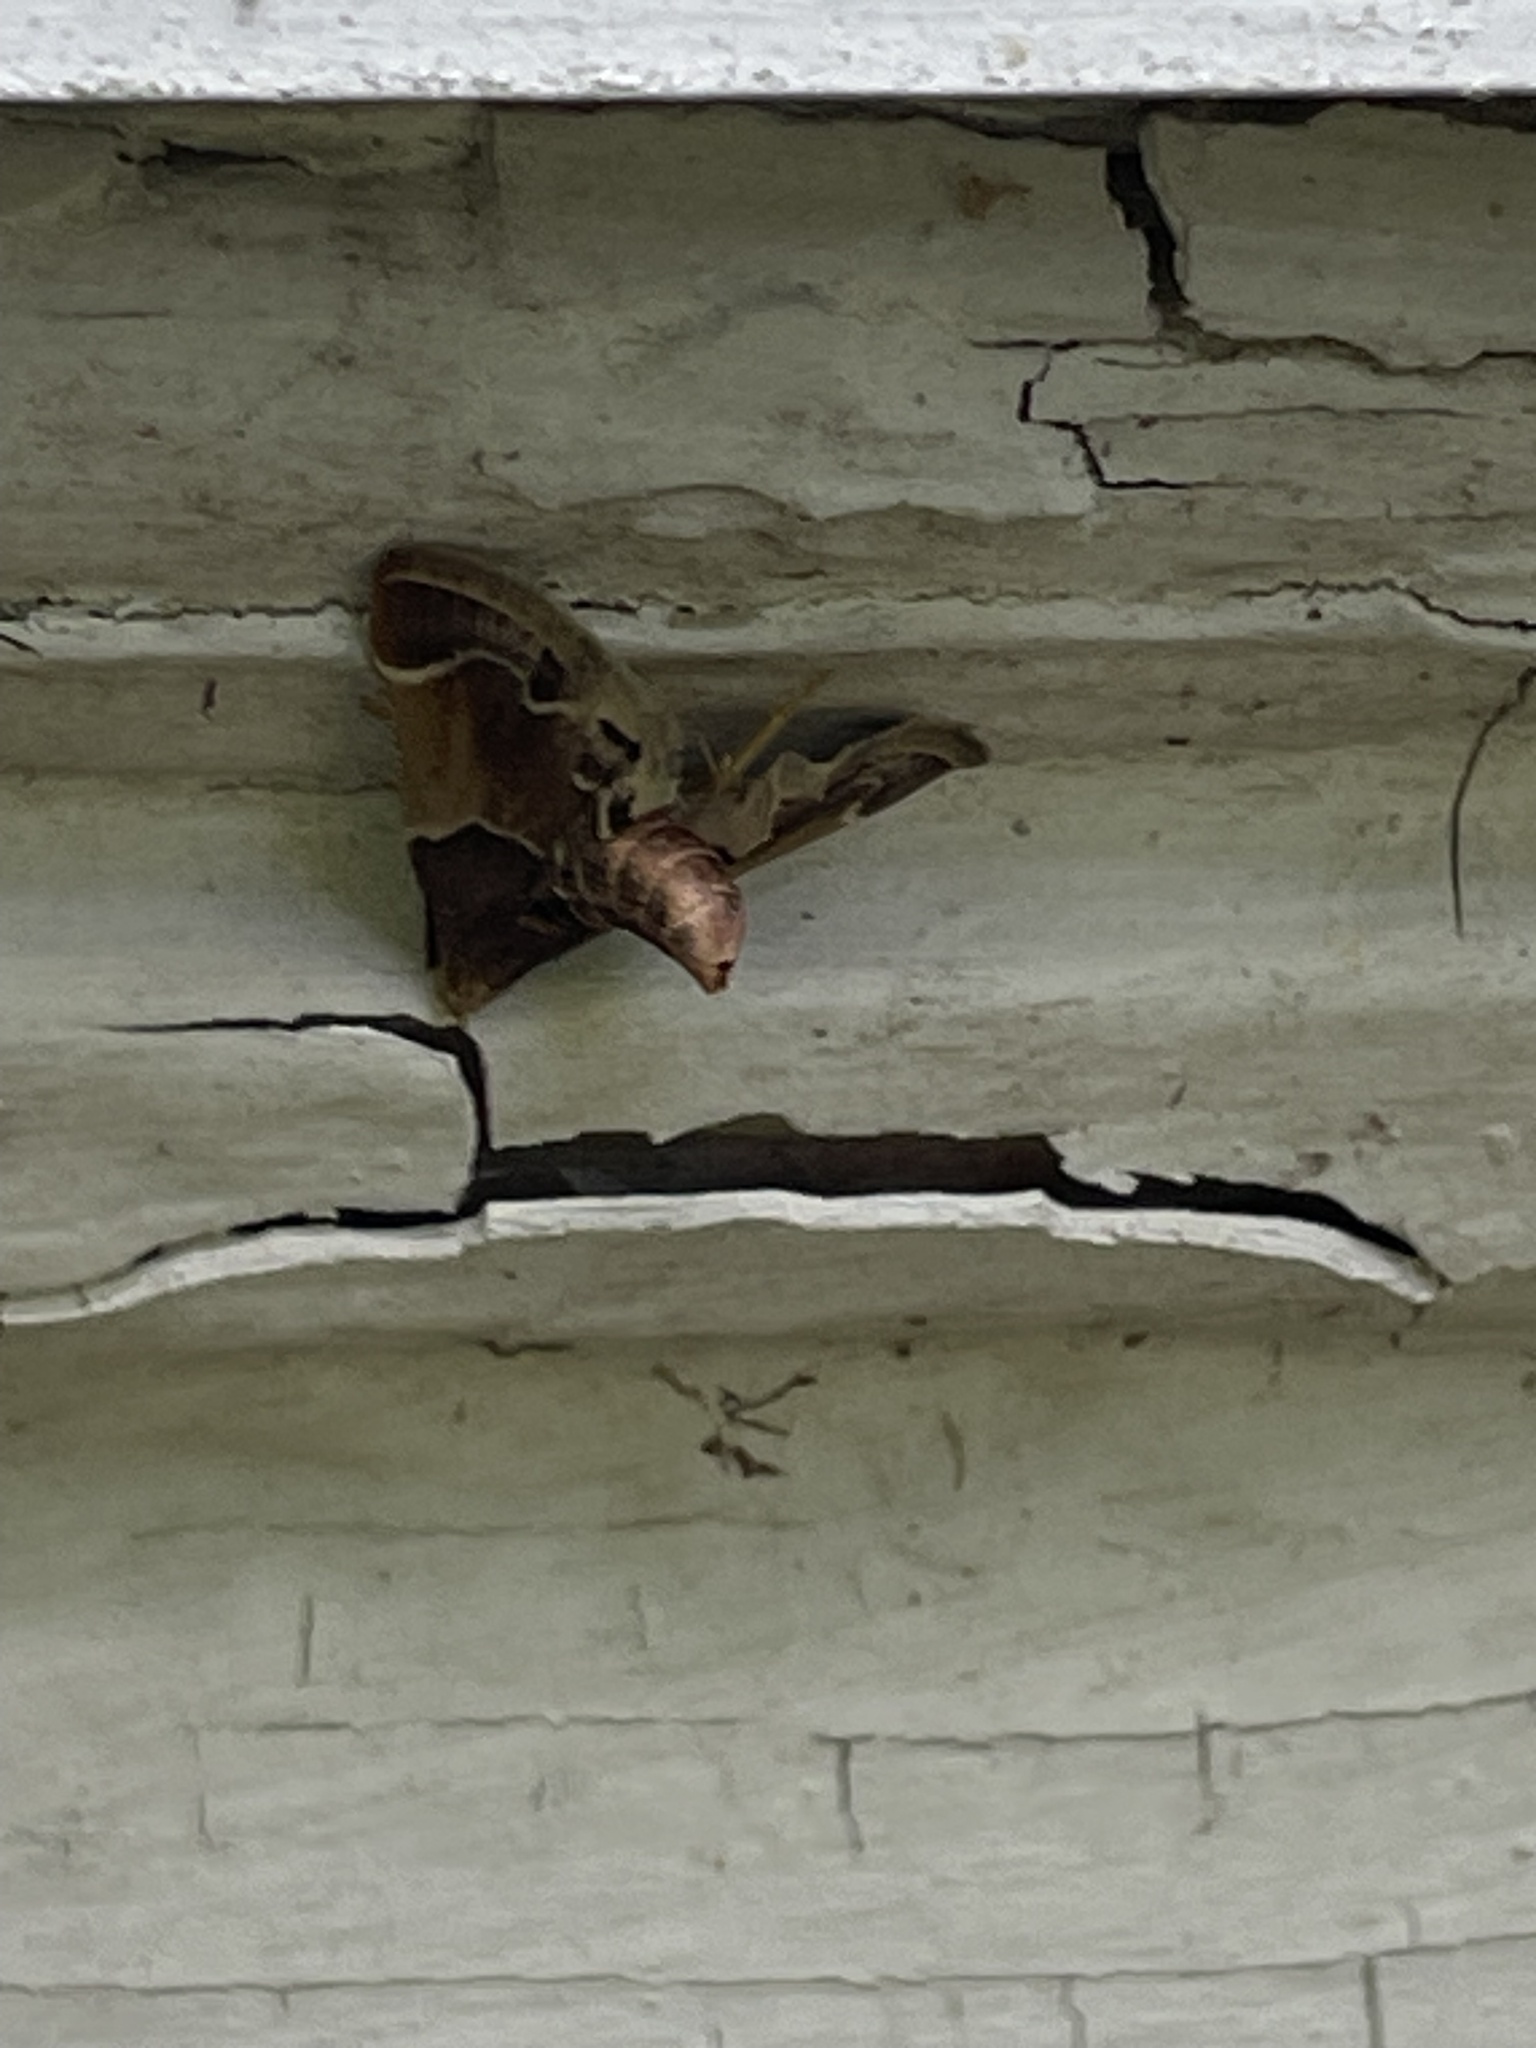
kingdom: Animalia
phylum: Arthropoda
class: Insecta
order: Lepidoptera
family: Pyralidae
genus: Pyralis
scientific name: Pyralis farinalis
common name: Meal moth
